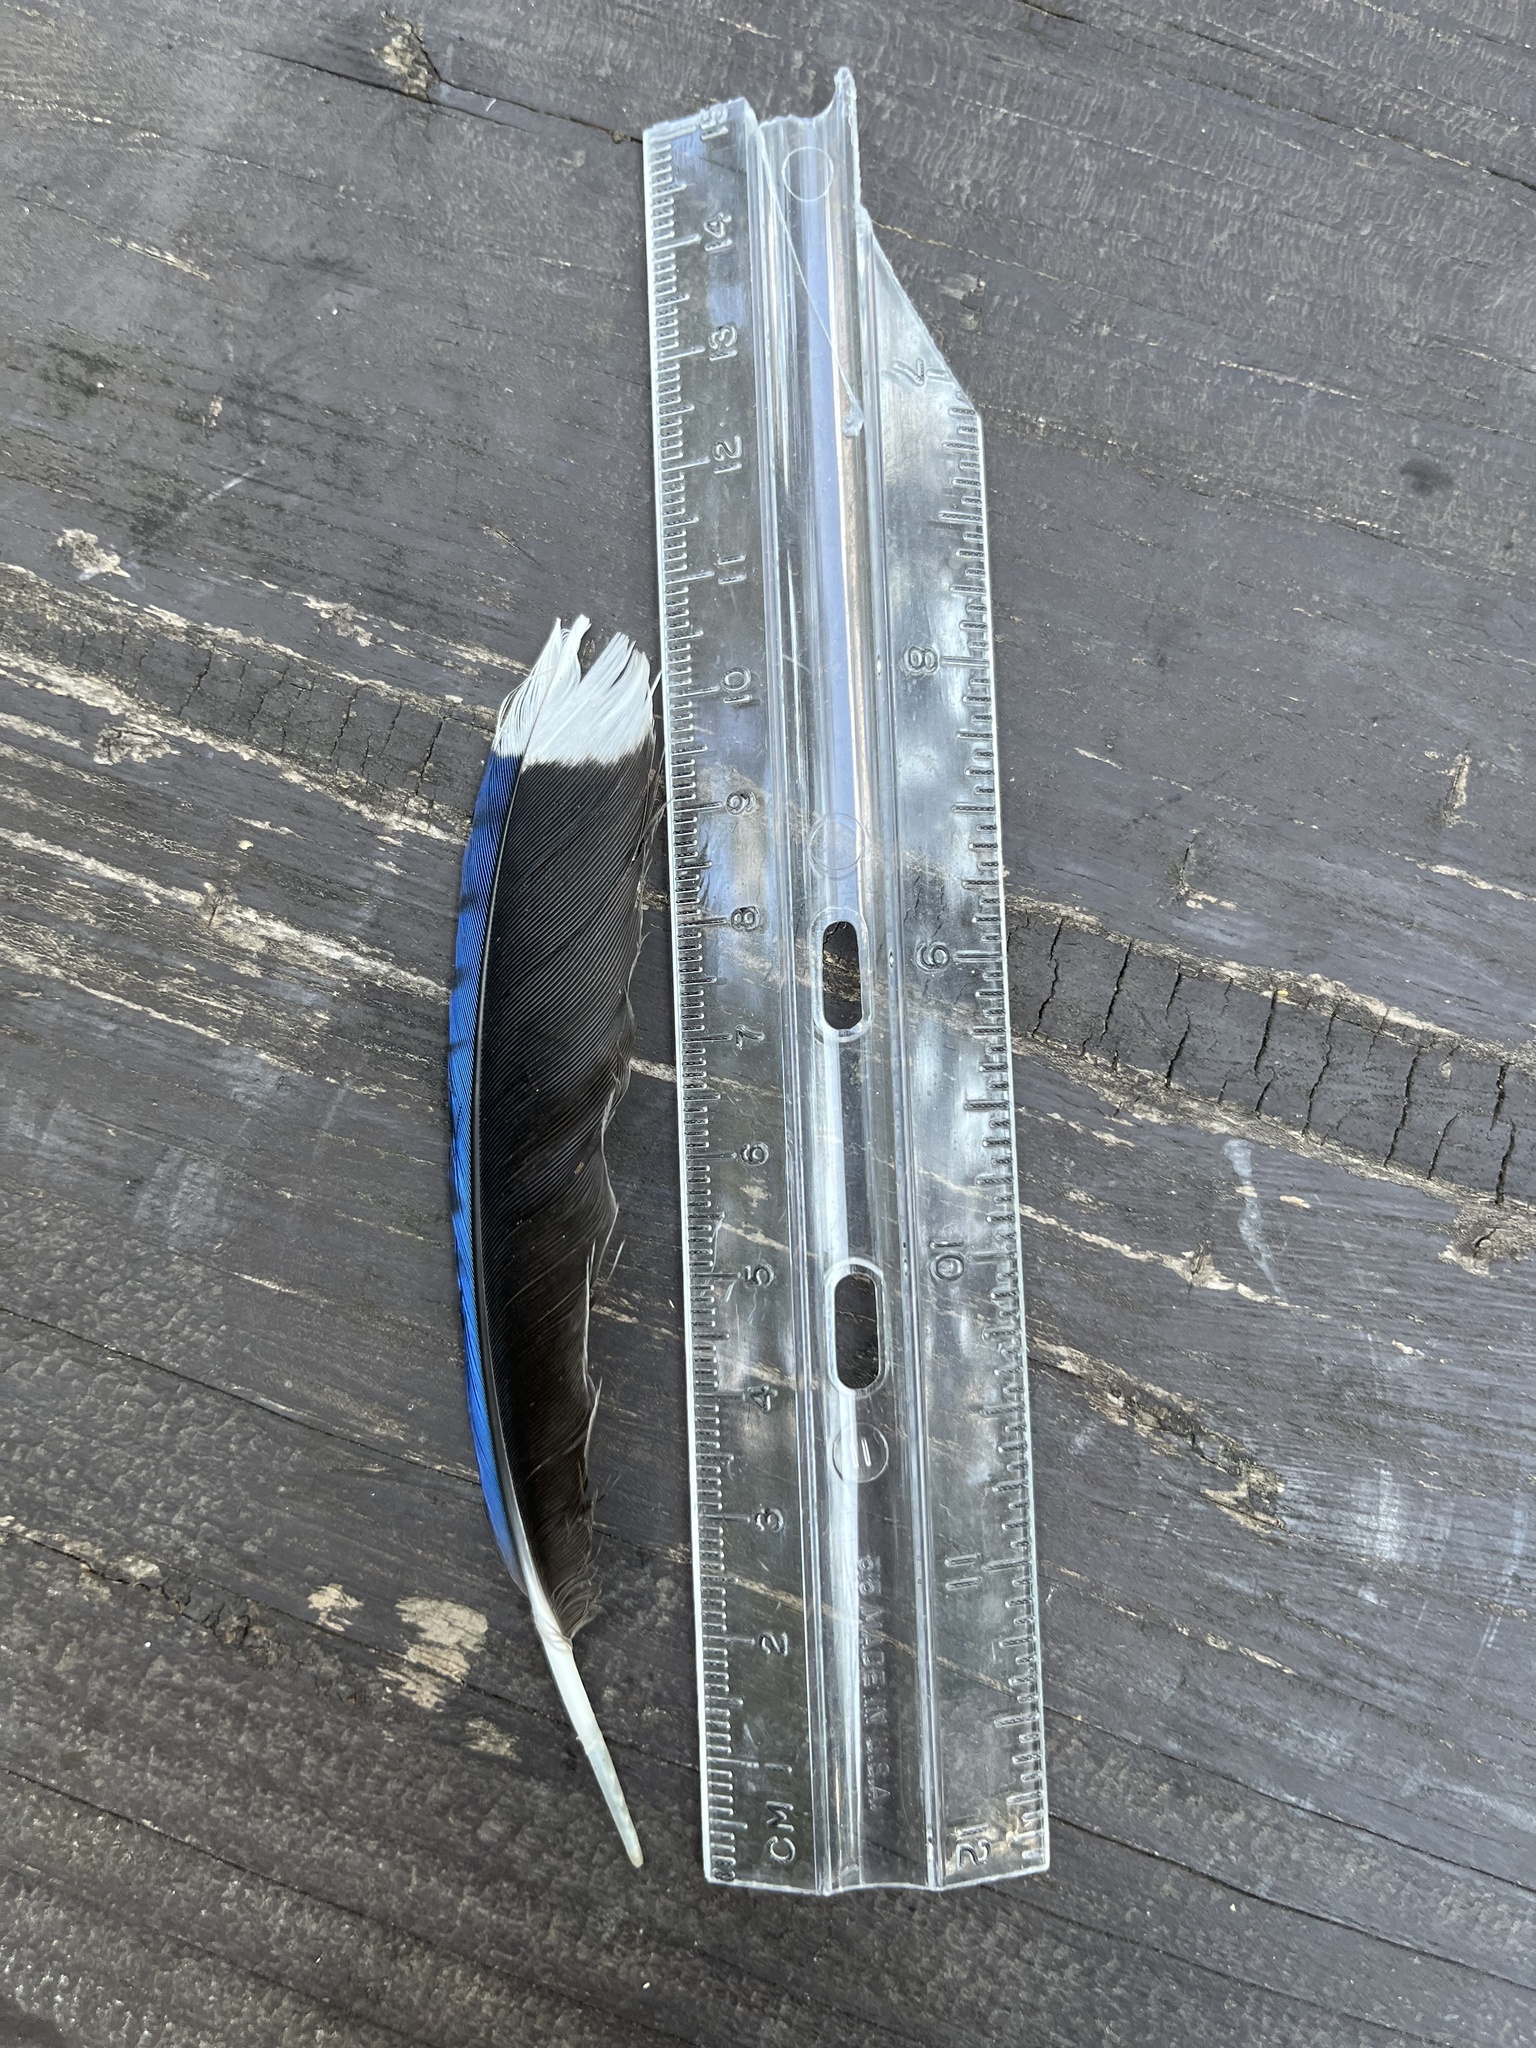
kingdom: Animalia
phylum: Chordata
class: Aves
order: Passeriformes
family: Corvidae
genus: Cyanocitta
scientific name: Cyanocitta cristata
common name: Blue jay
